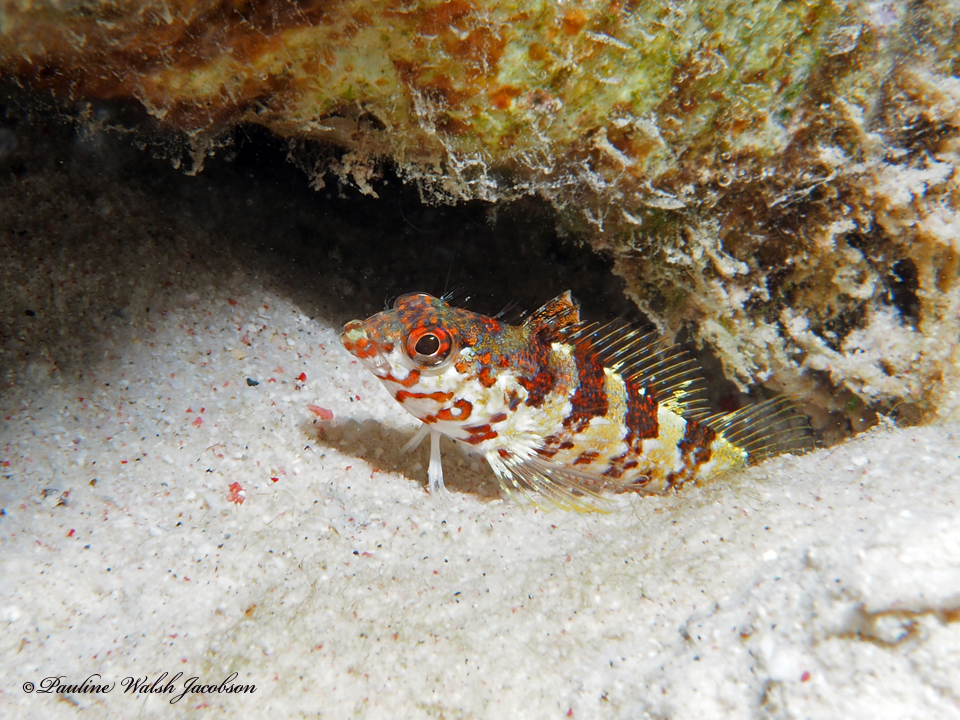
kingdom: Animalia
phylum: Chordata
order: Perciformes
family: Labrisomidae
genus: Malacoctenus
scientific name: Malacoctenus triangulatus
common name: Saddled blenny
